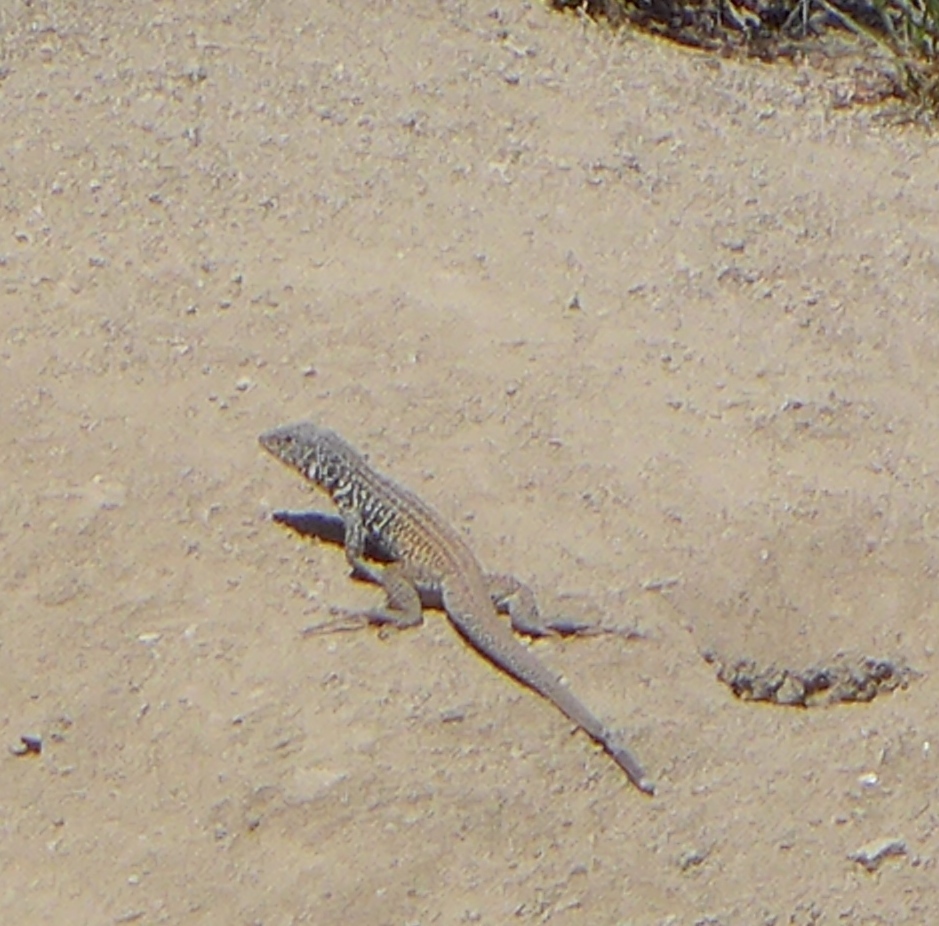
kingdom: Animalia
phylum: Chordata
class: Squamata
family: Teiidae
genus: Aspidoscelis
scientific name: Aspidoscelis tigris
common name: Tiger whiptail
